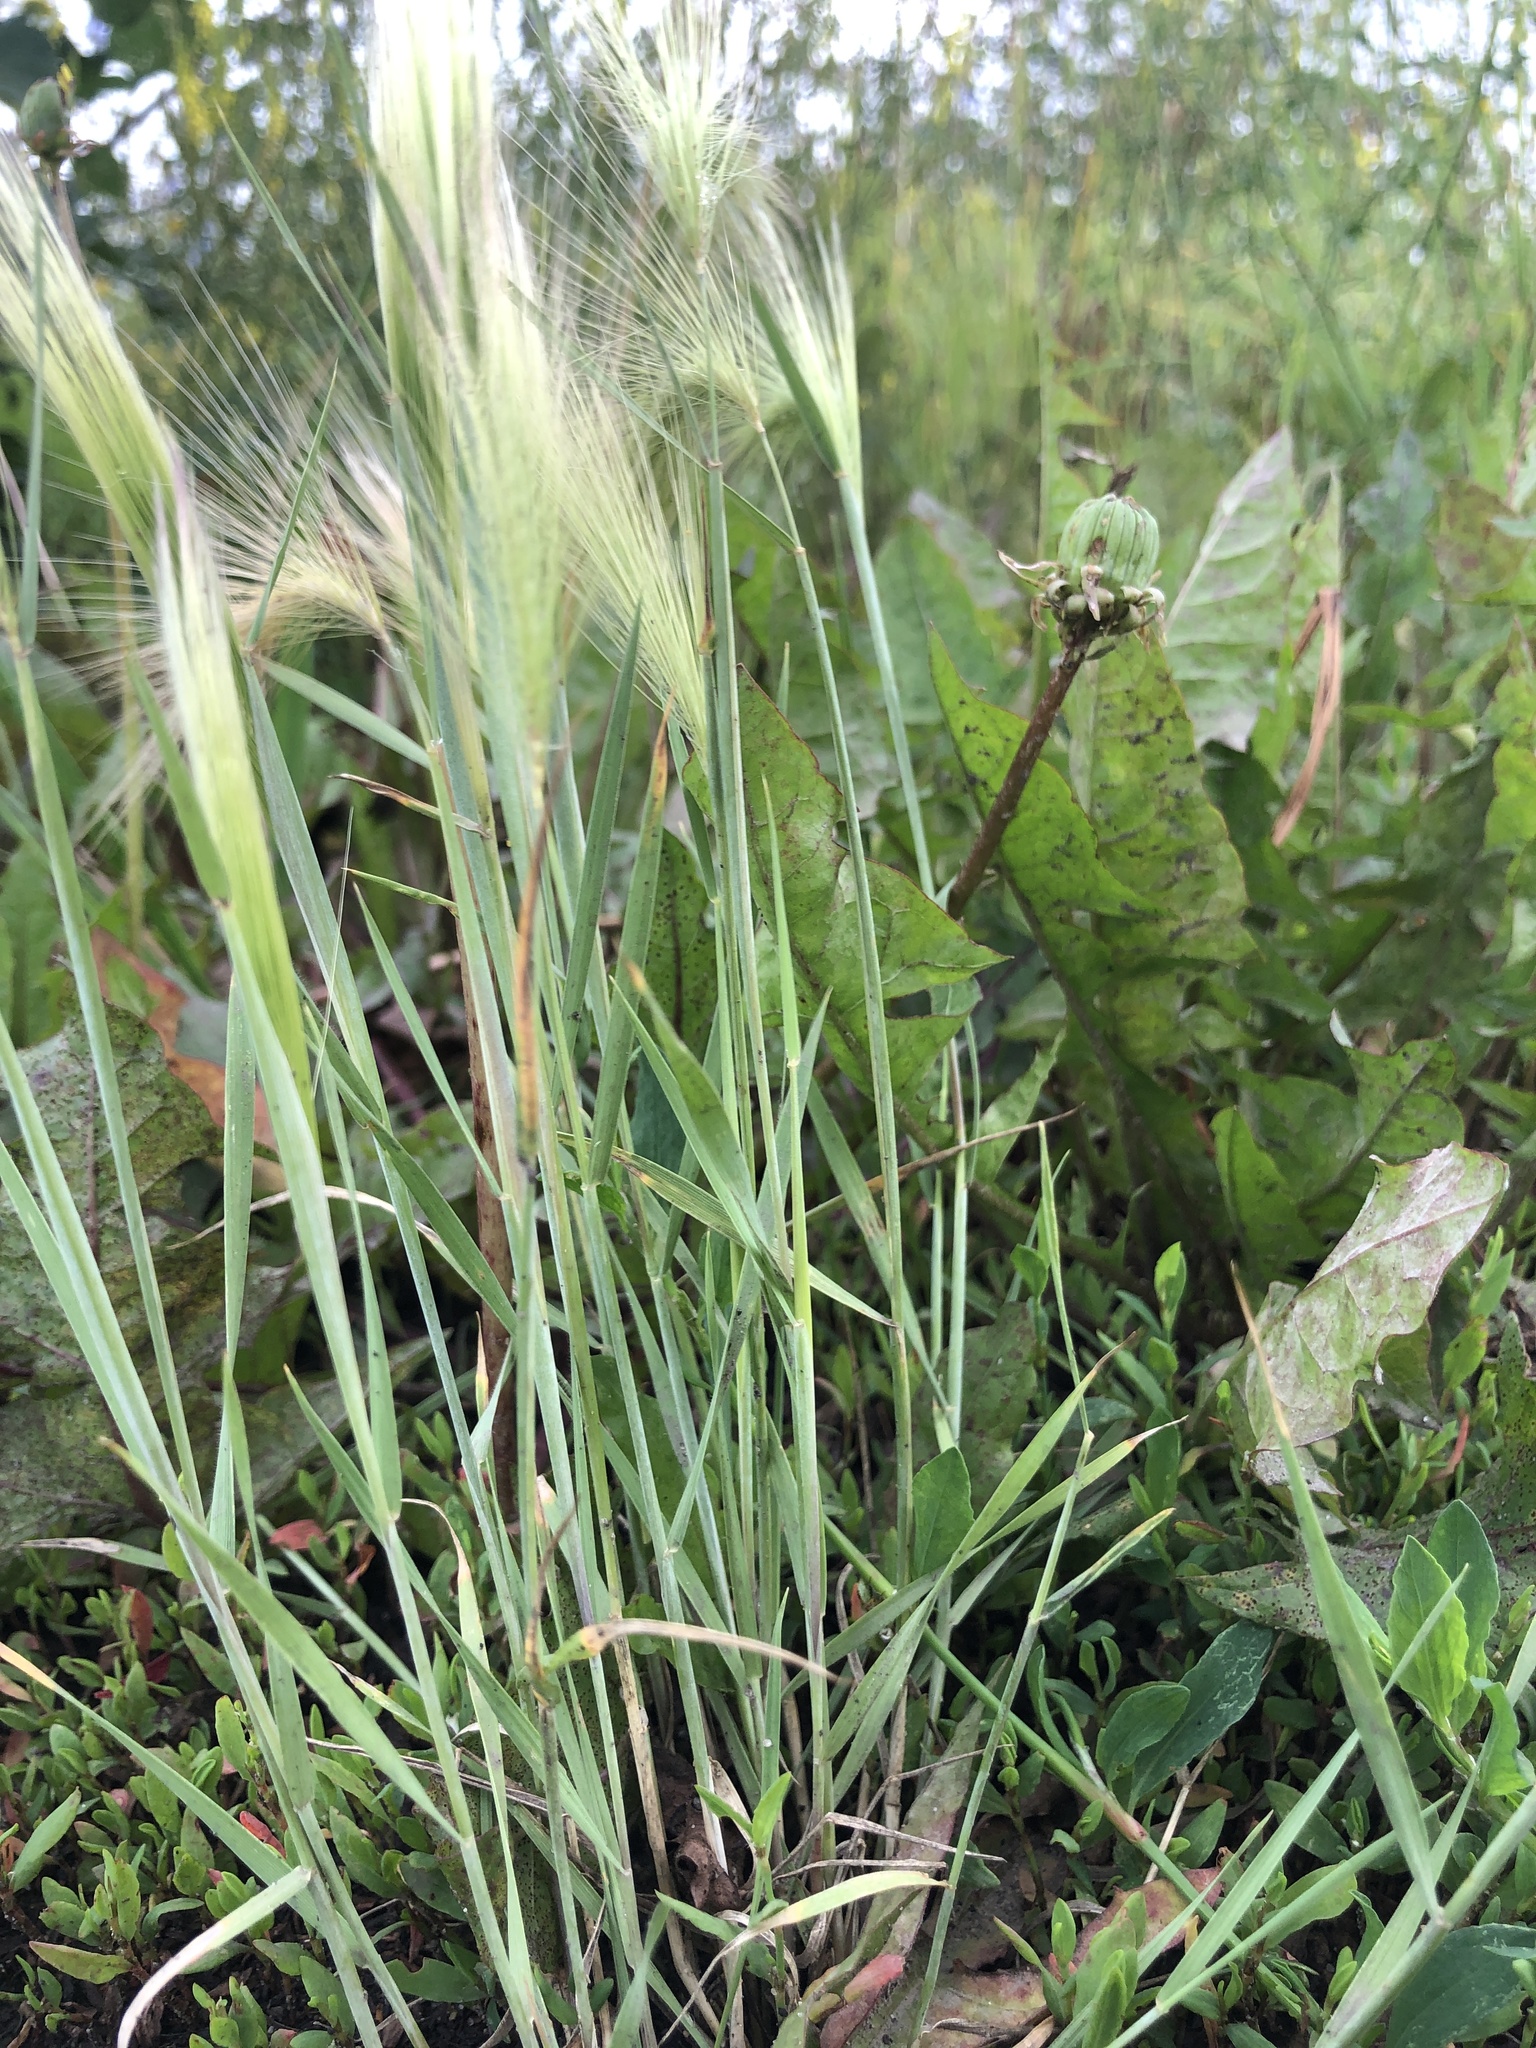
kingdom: Plantae
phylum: Tracheophyta
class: Liliopsida
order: Poales
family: Poaceae
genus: Hordeum
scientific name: Hordeum jubatum
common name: Foxtail barley
